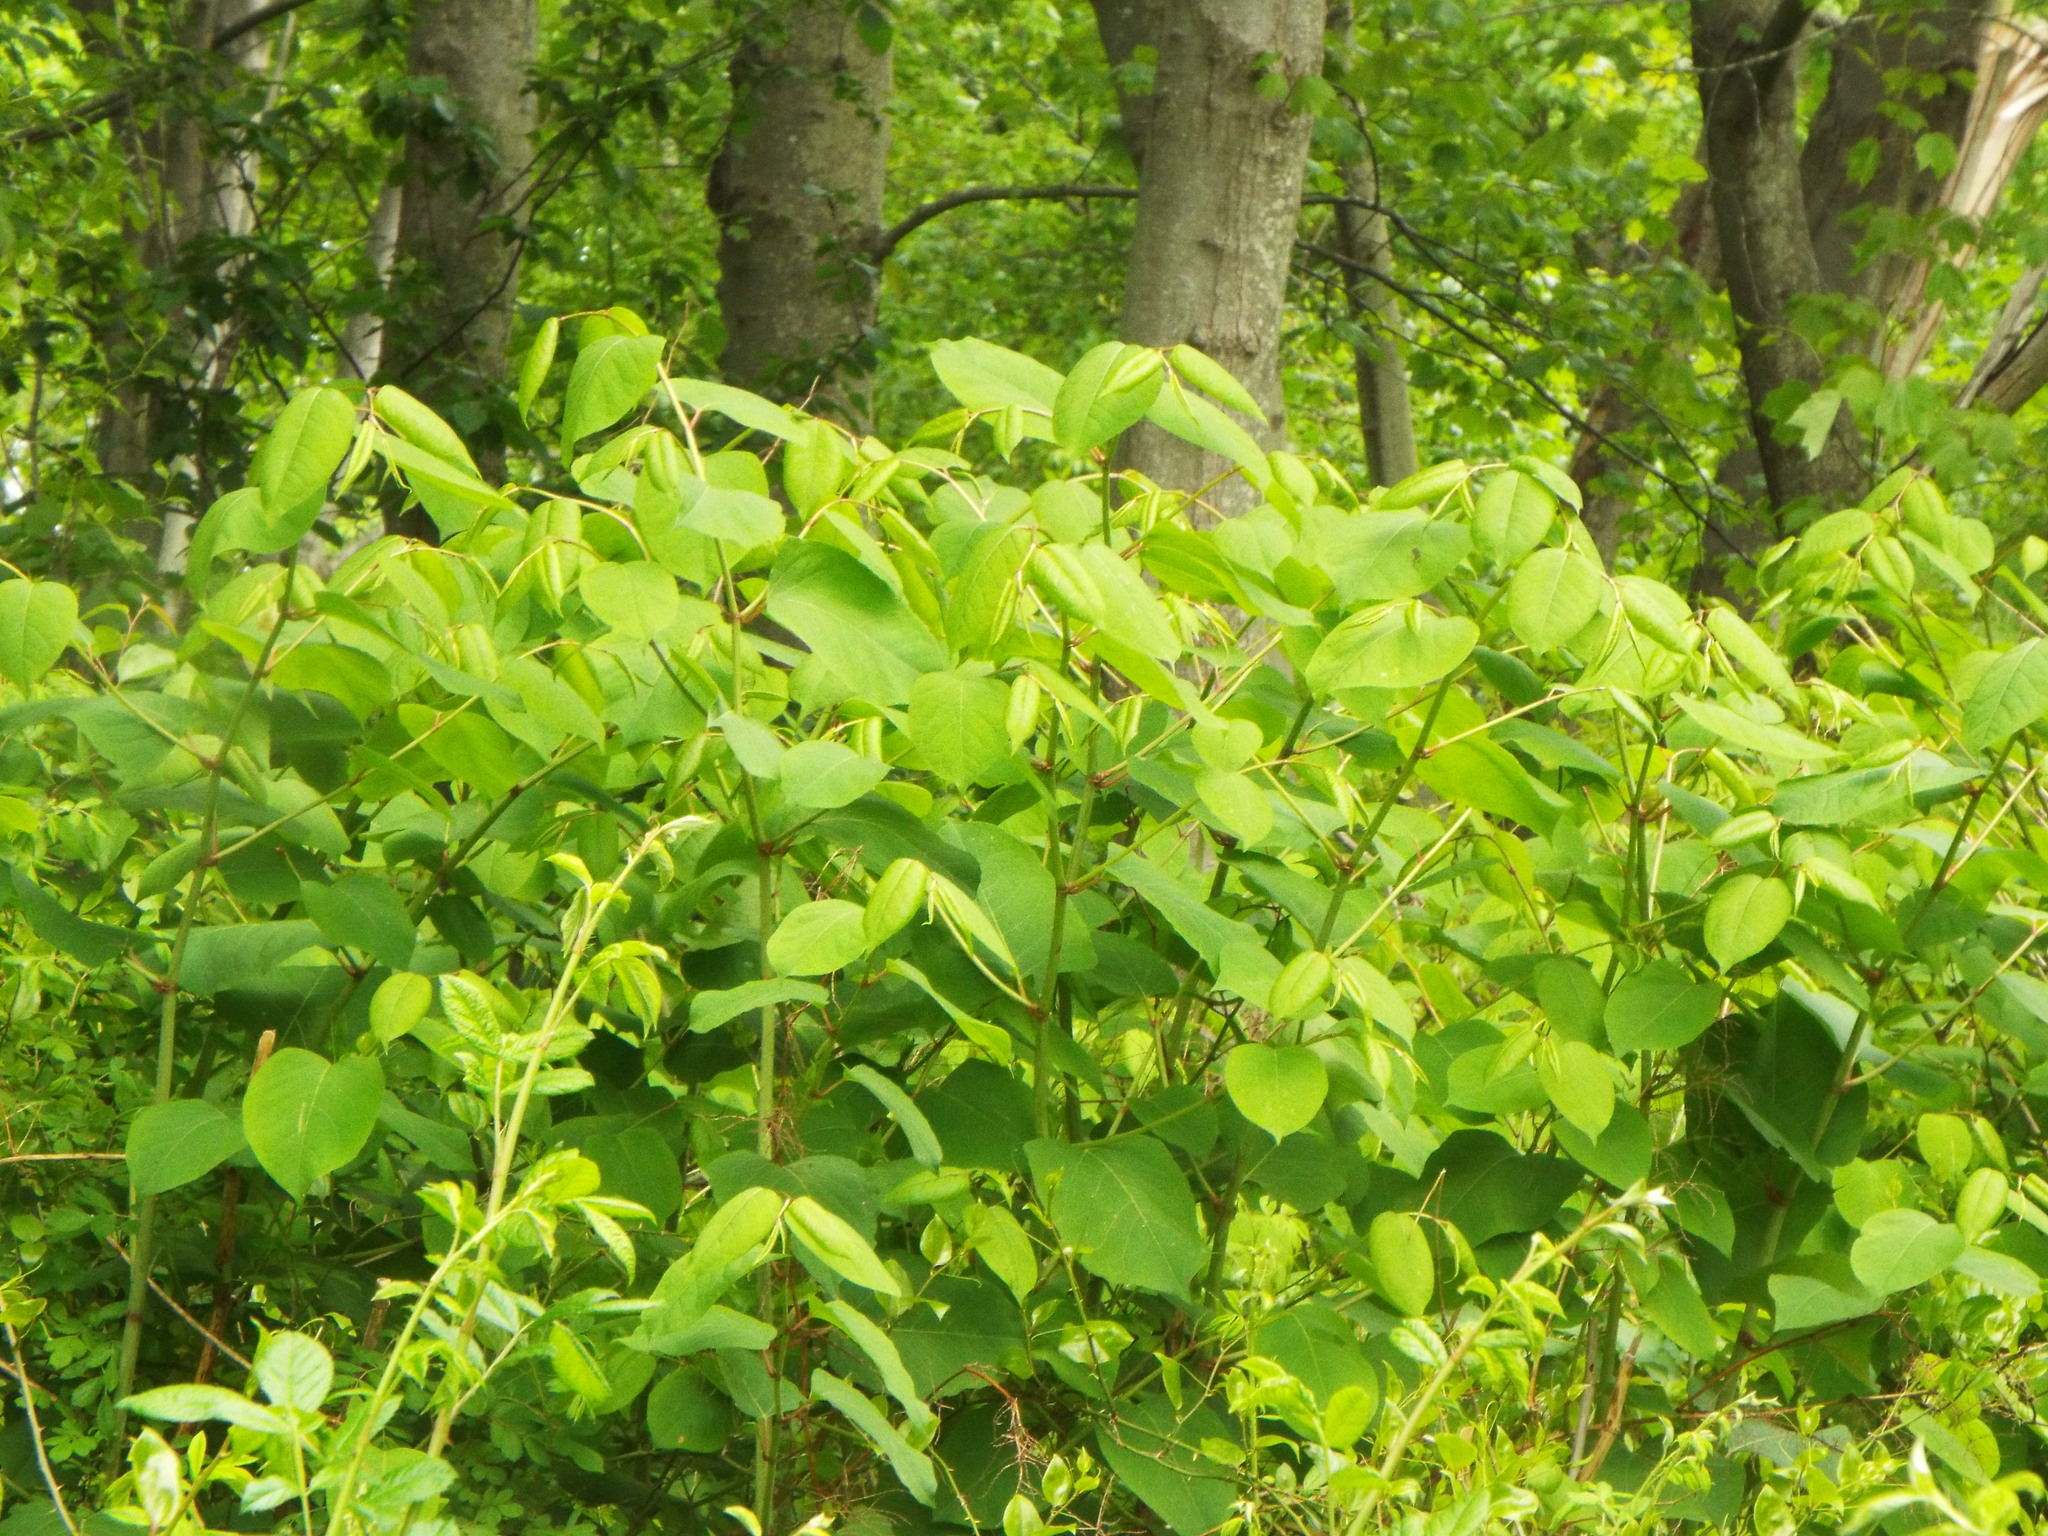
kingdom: Plantae
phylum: Tracheophyta
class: Magnoliopsida
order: Caryophyllales
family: Polygonaceae
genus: Reynoutria
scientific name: Reynoutria japonica
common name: Japanese knotweed
